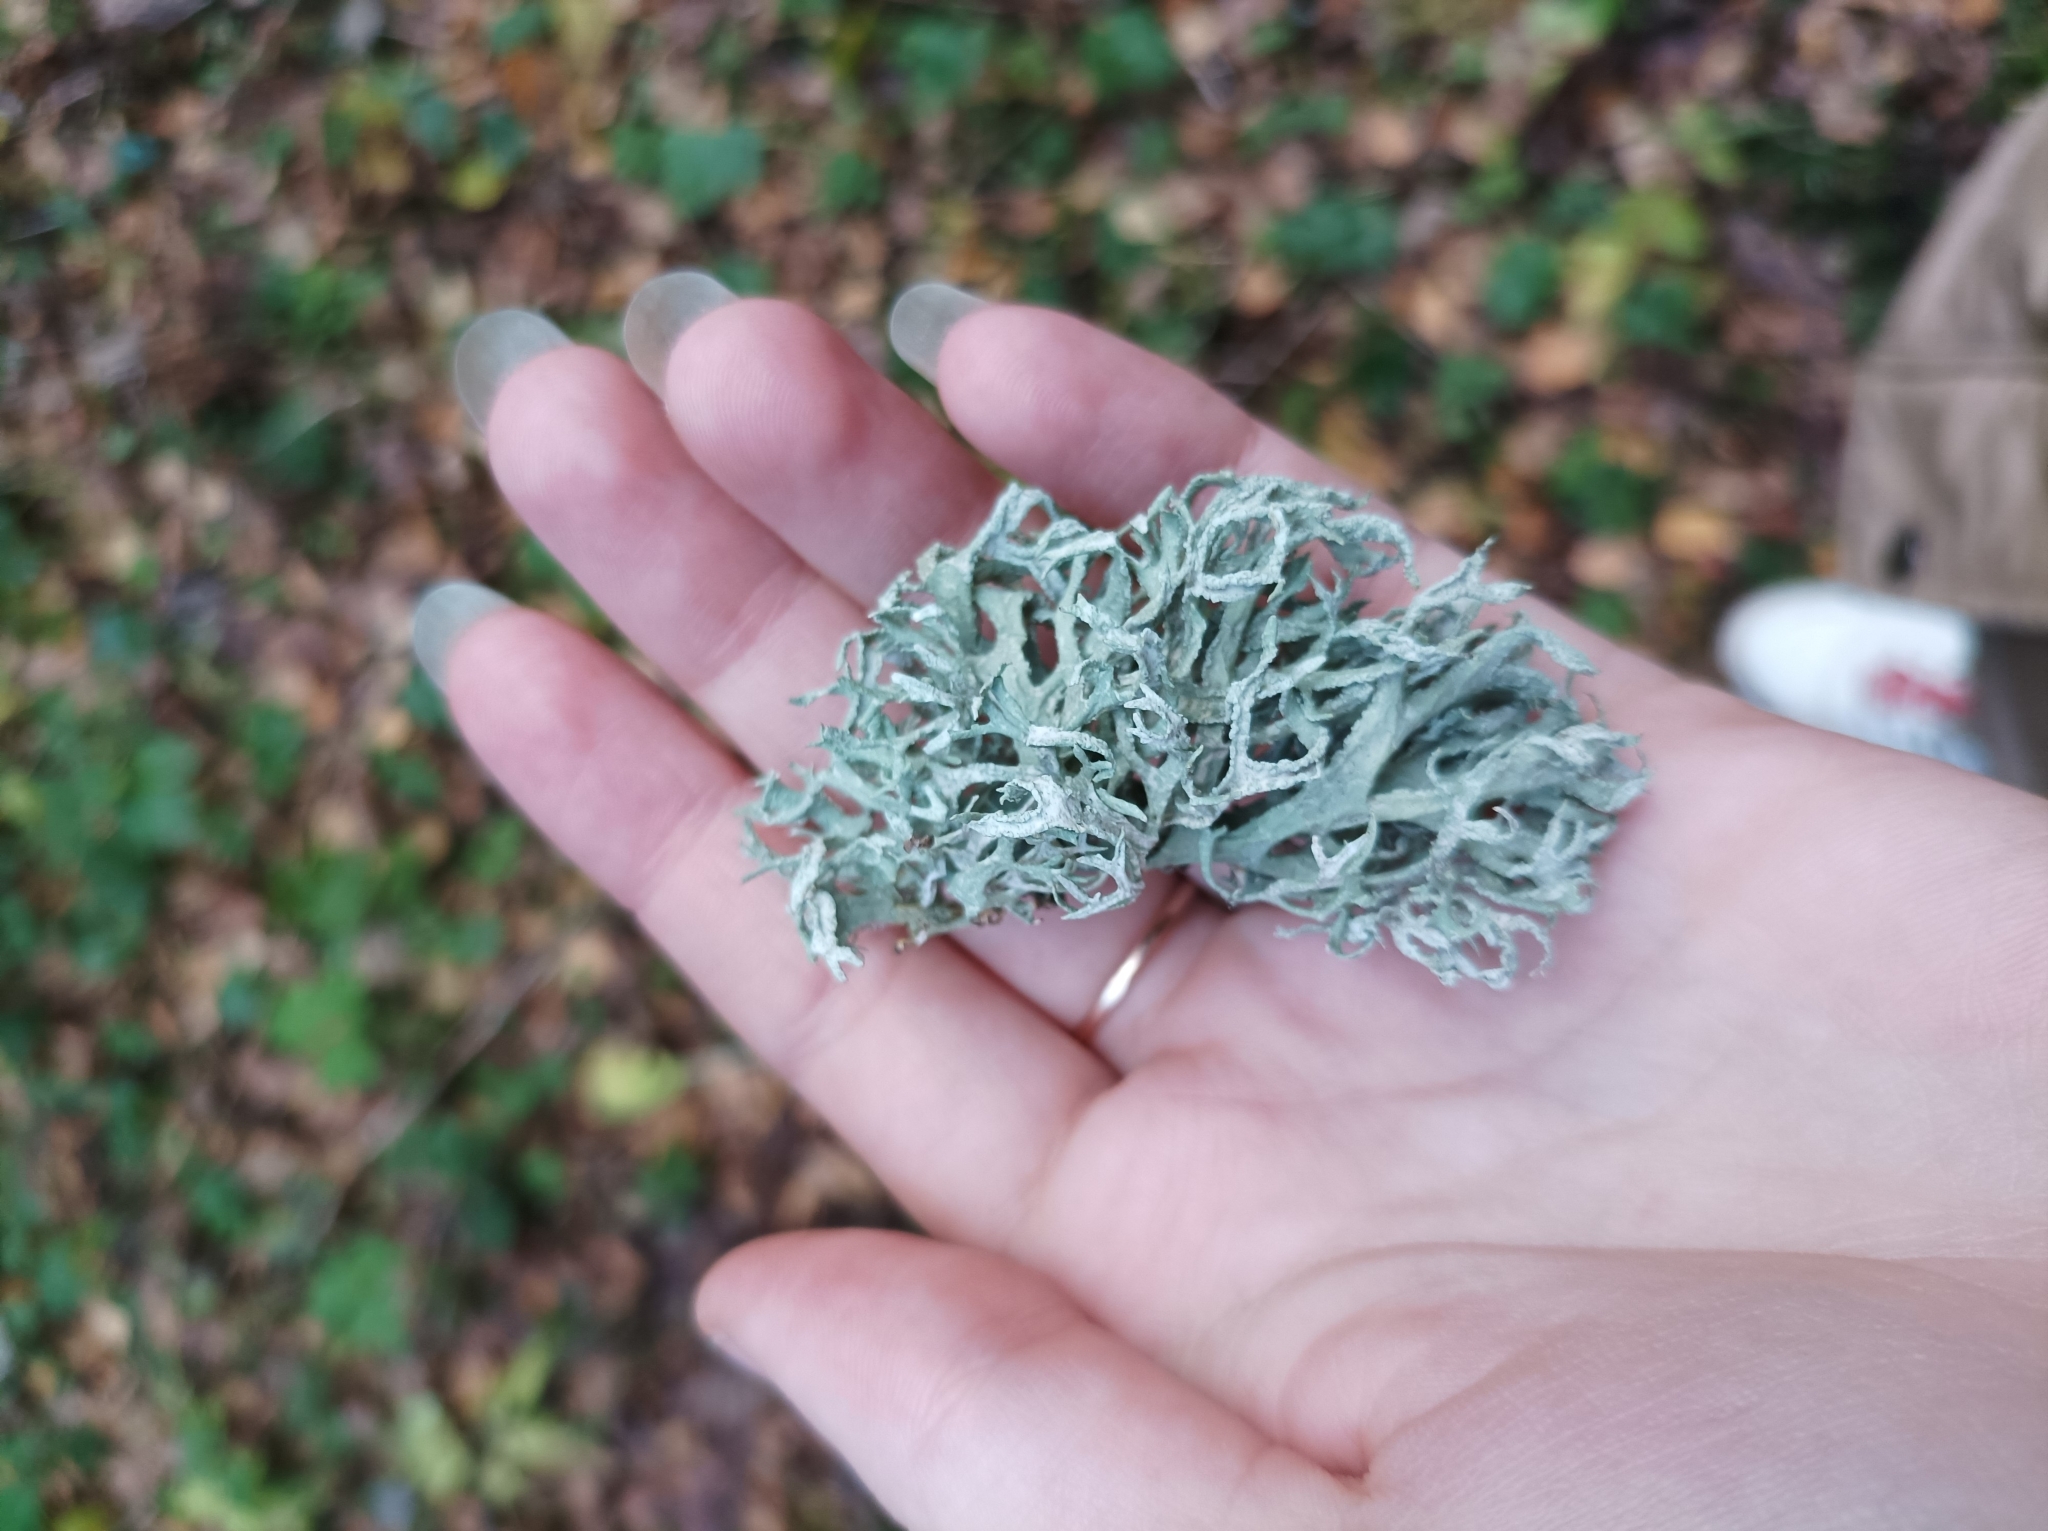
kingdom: Fungi
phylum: Ascomycota
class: Lecanoromycetes
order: Lecanorales
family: Parmeliaceae
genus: Evernia
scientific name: Evernia prunastri
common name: Oak moss
